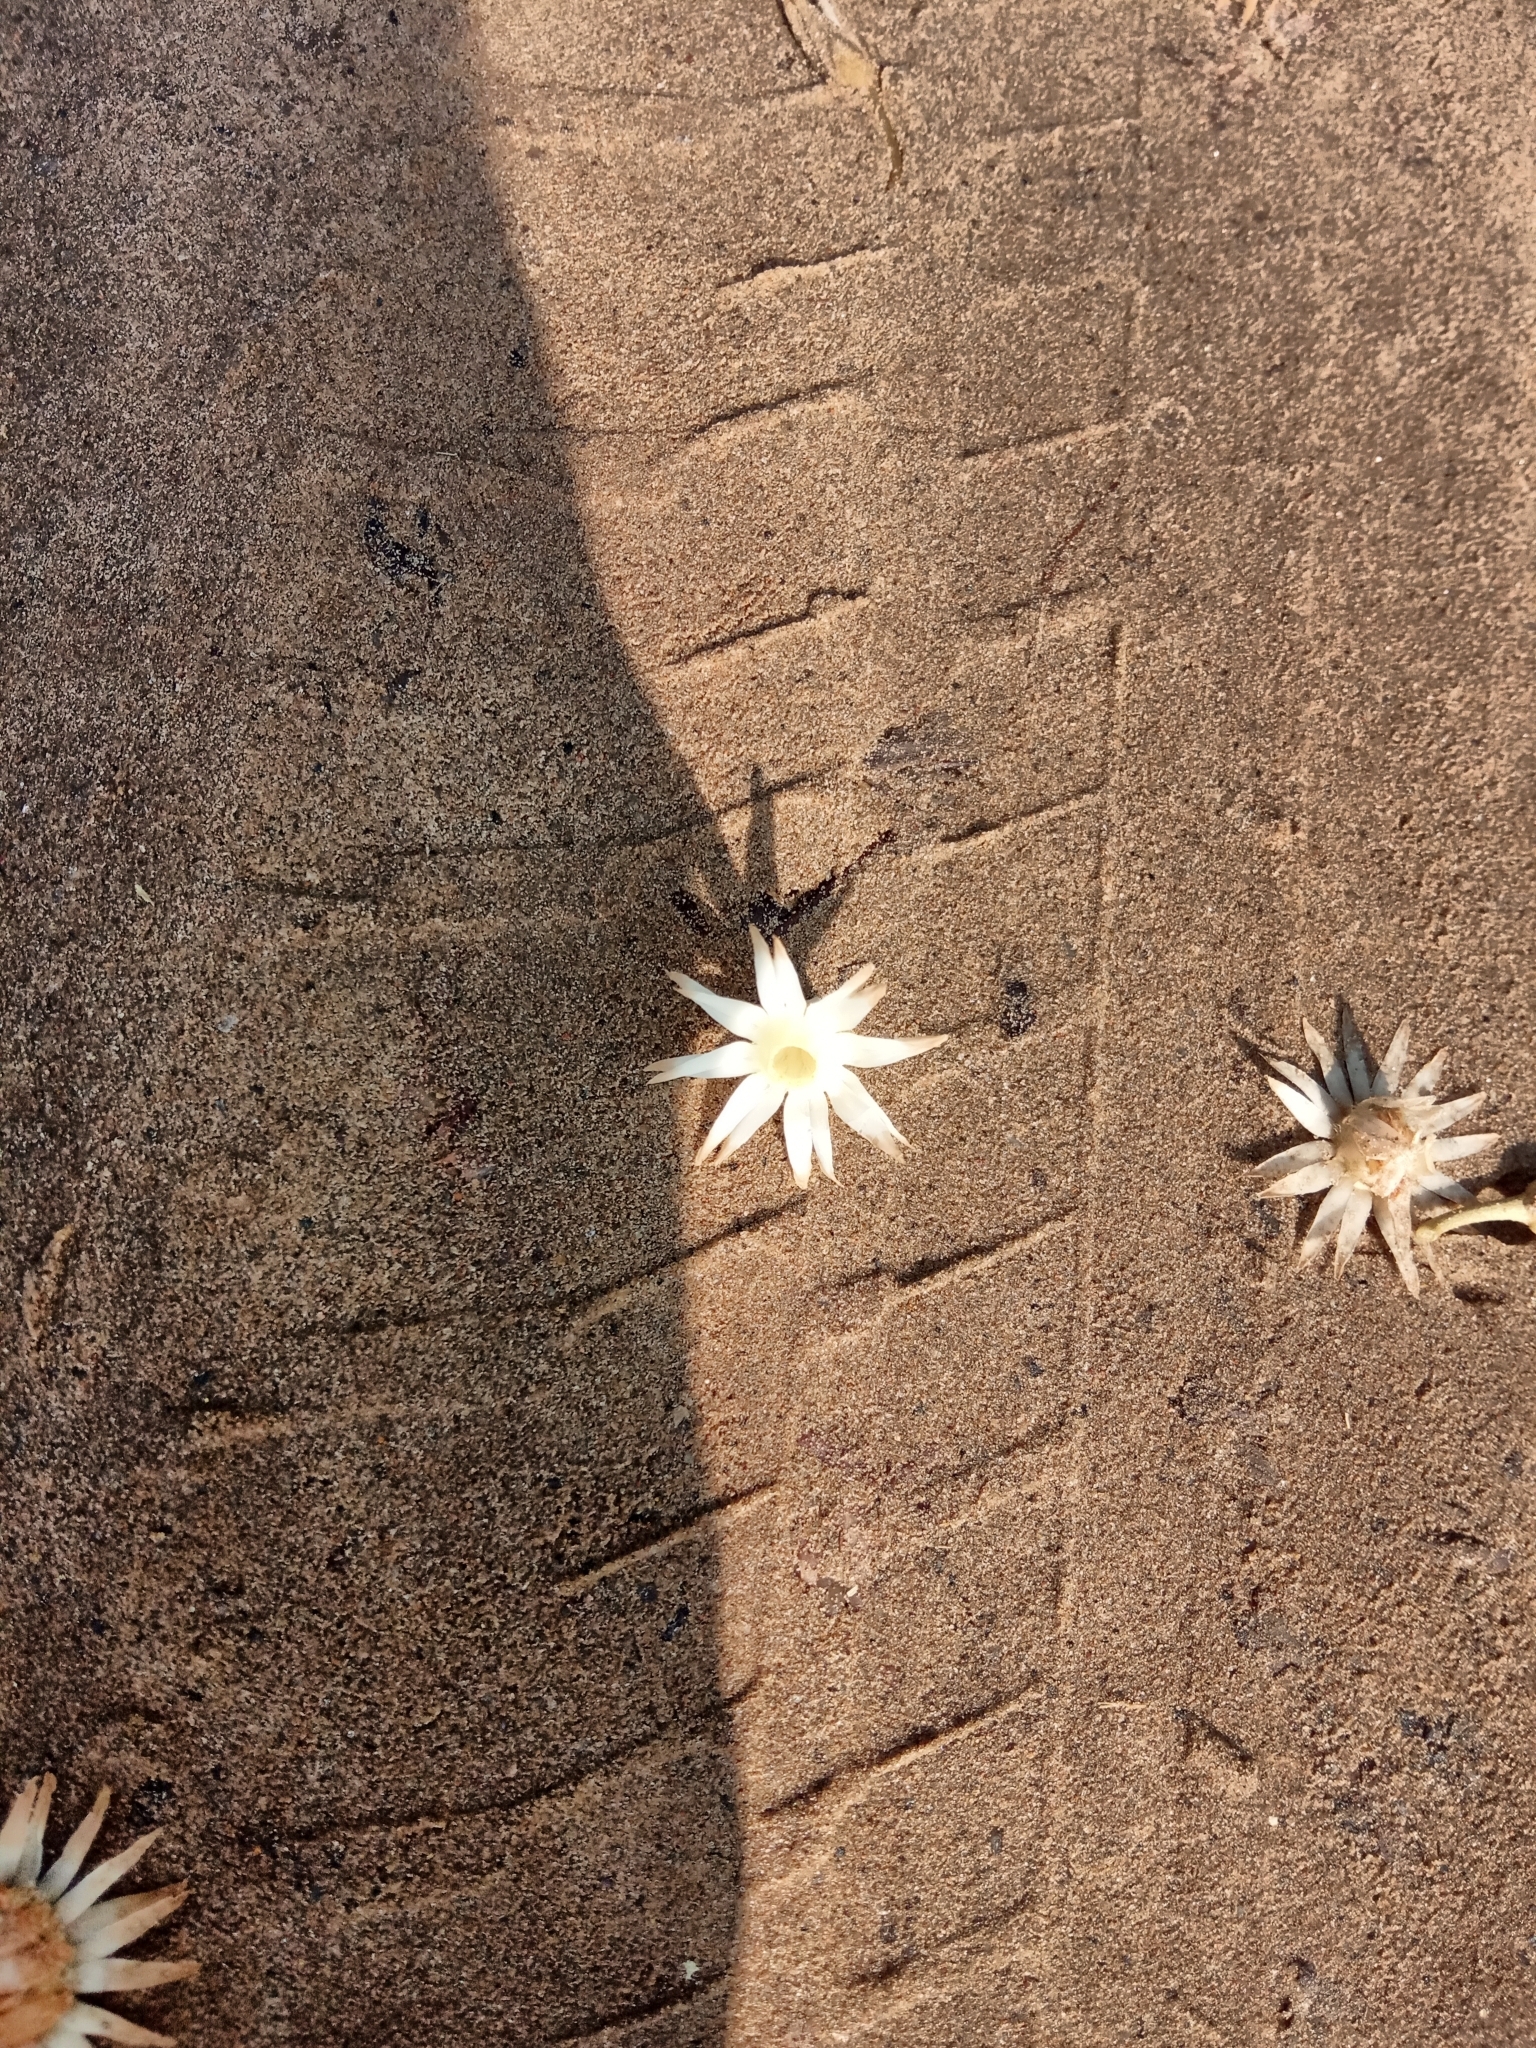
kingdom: Plantae
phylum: Tracheophyta
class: Magnoliopsida
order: Ericales
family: Sapotaceae
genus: Mimusops
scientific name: Mimusops elengi
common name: Spanish cherry
